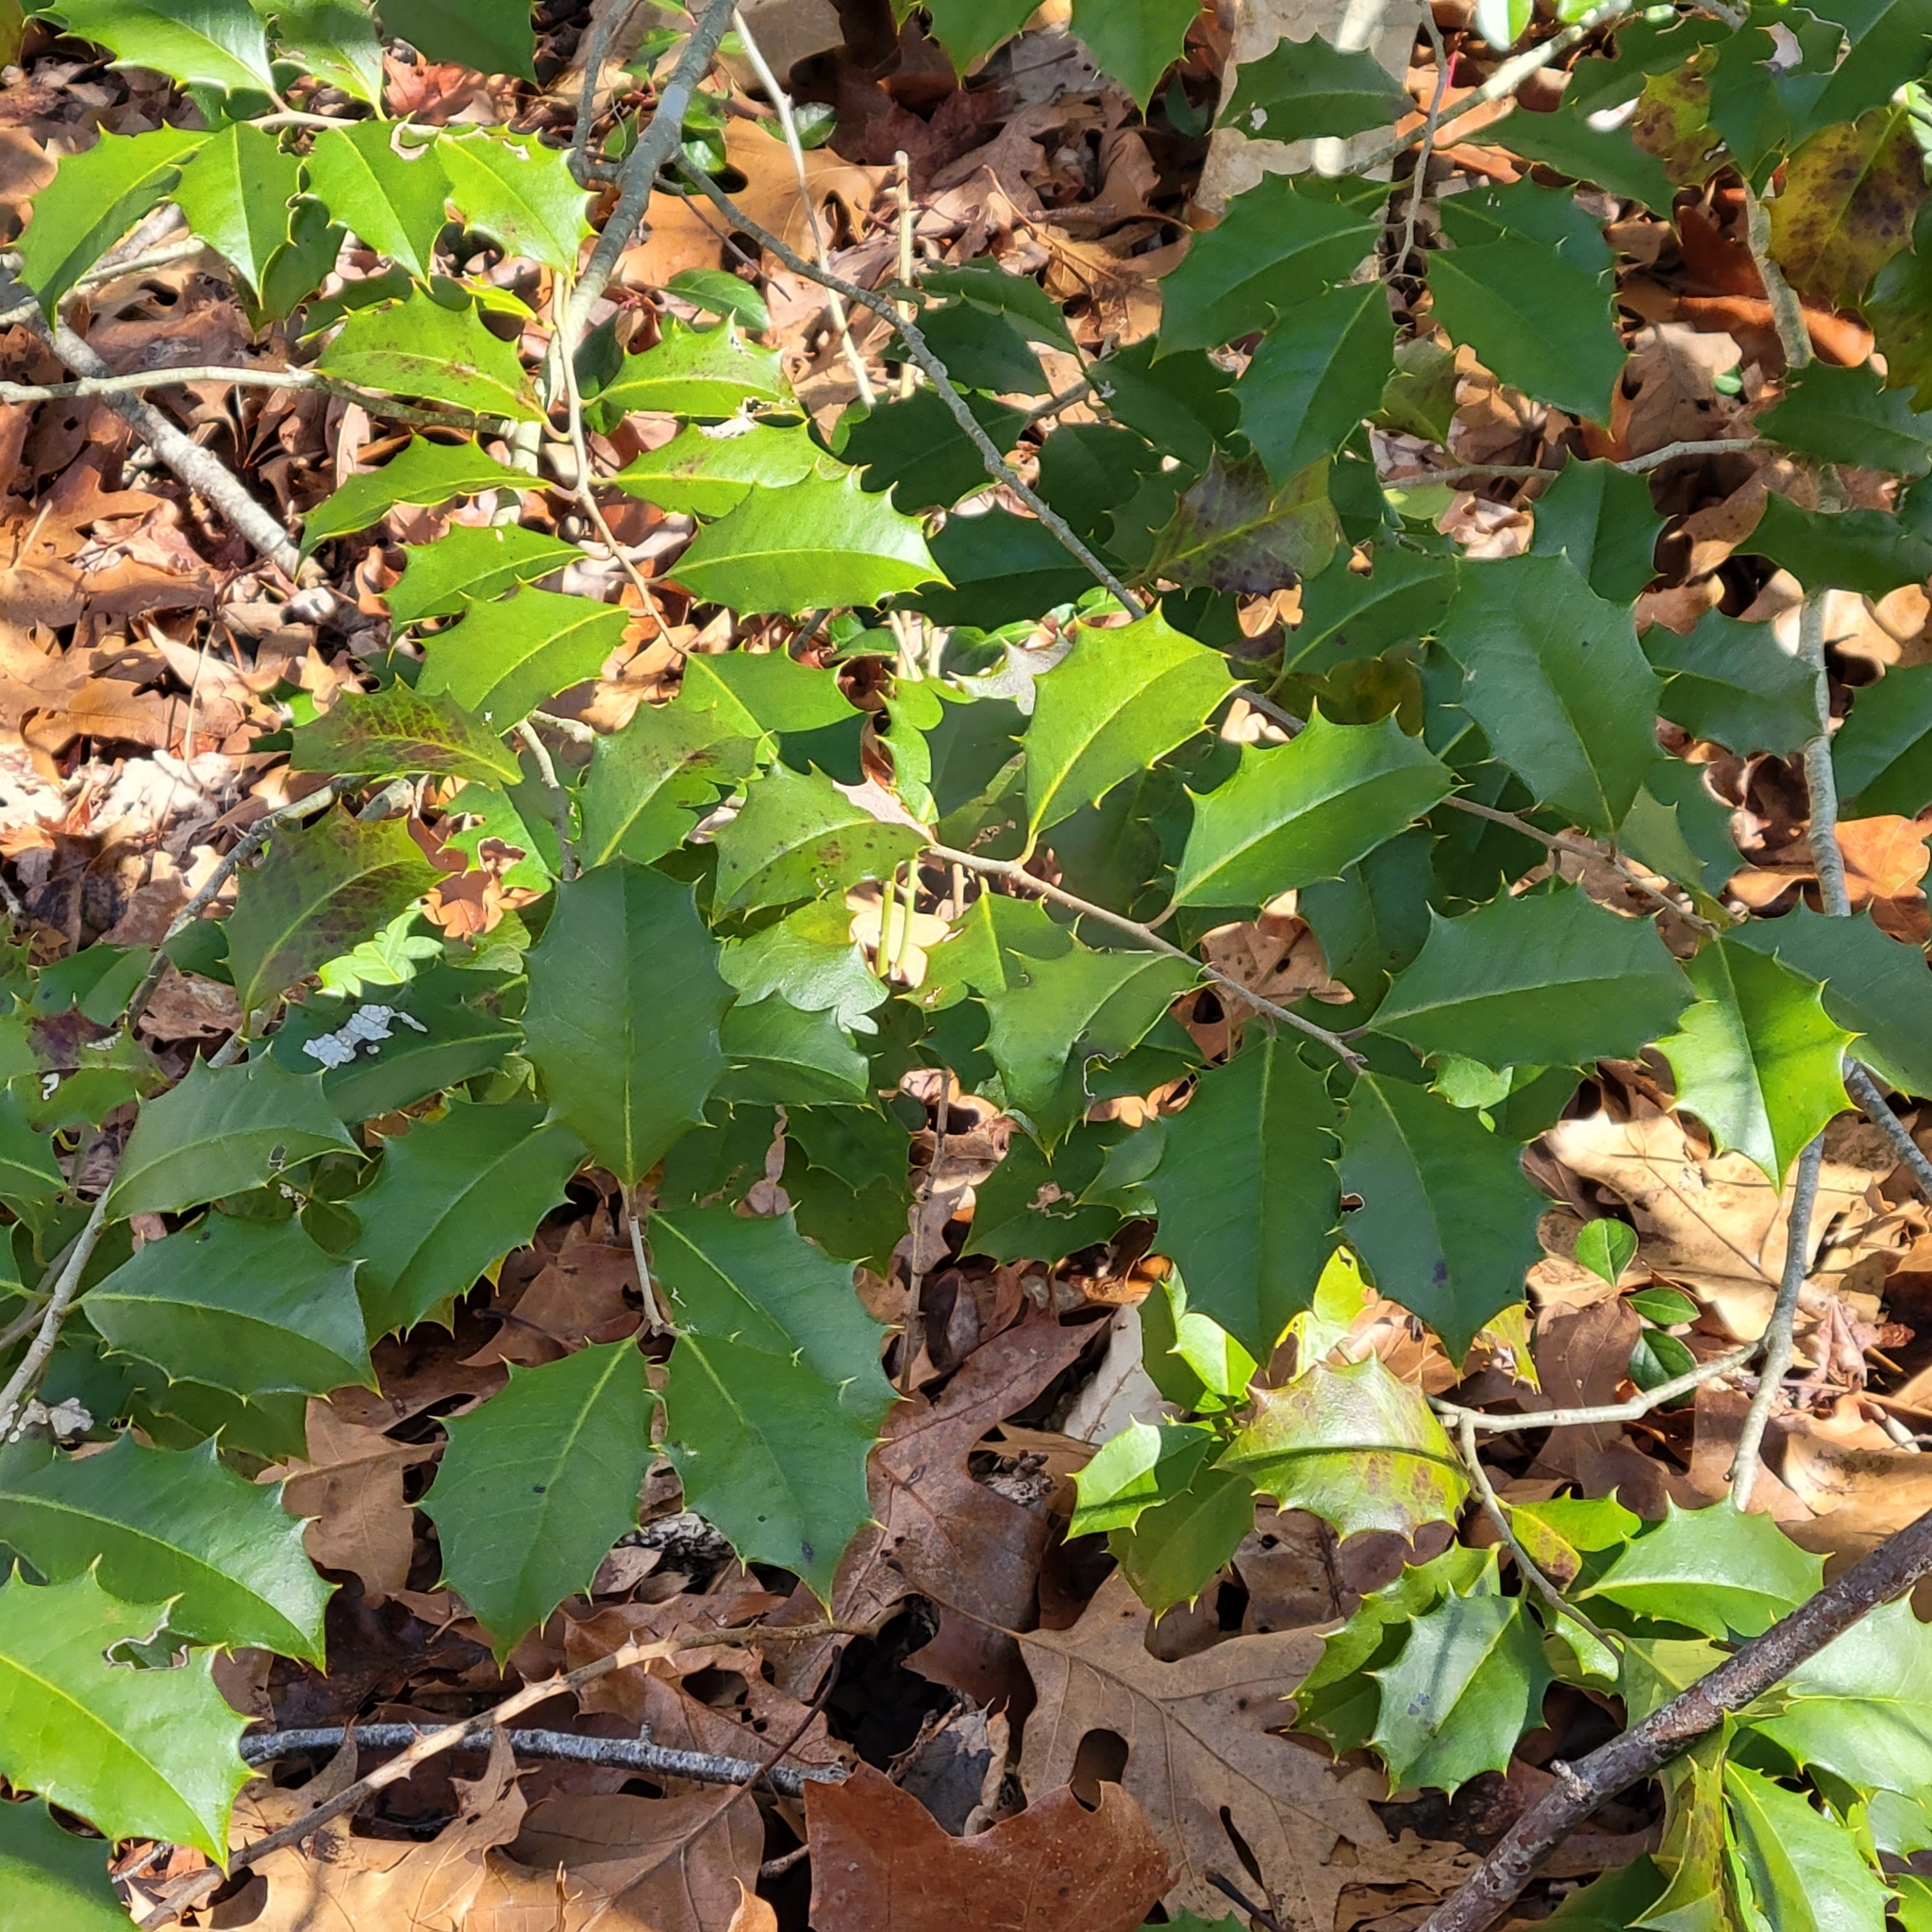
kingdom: Plantae
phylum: Tracheophyta
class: Magnoliopsida
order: Aquifoliales
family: Aquifoliaceae
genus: Ilex
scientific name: Ilex opaca
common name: American holly
